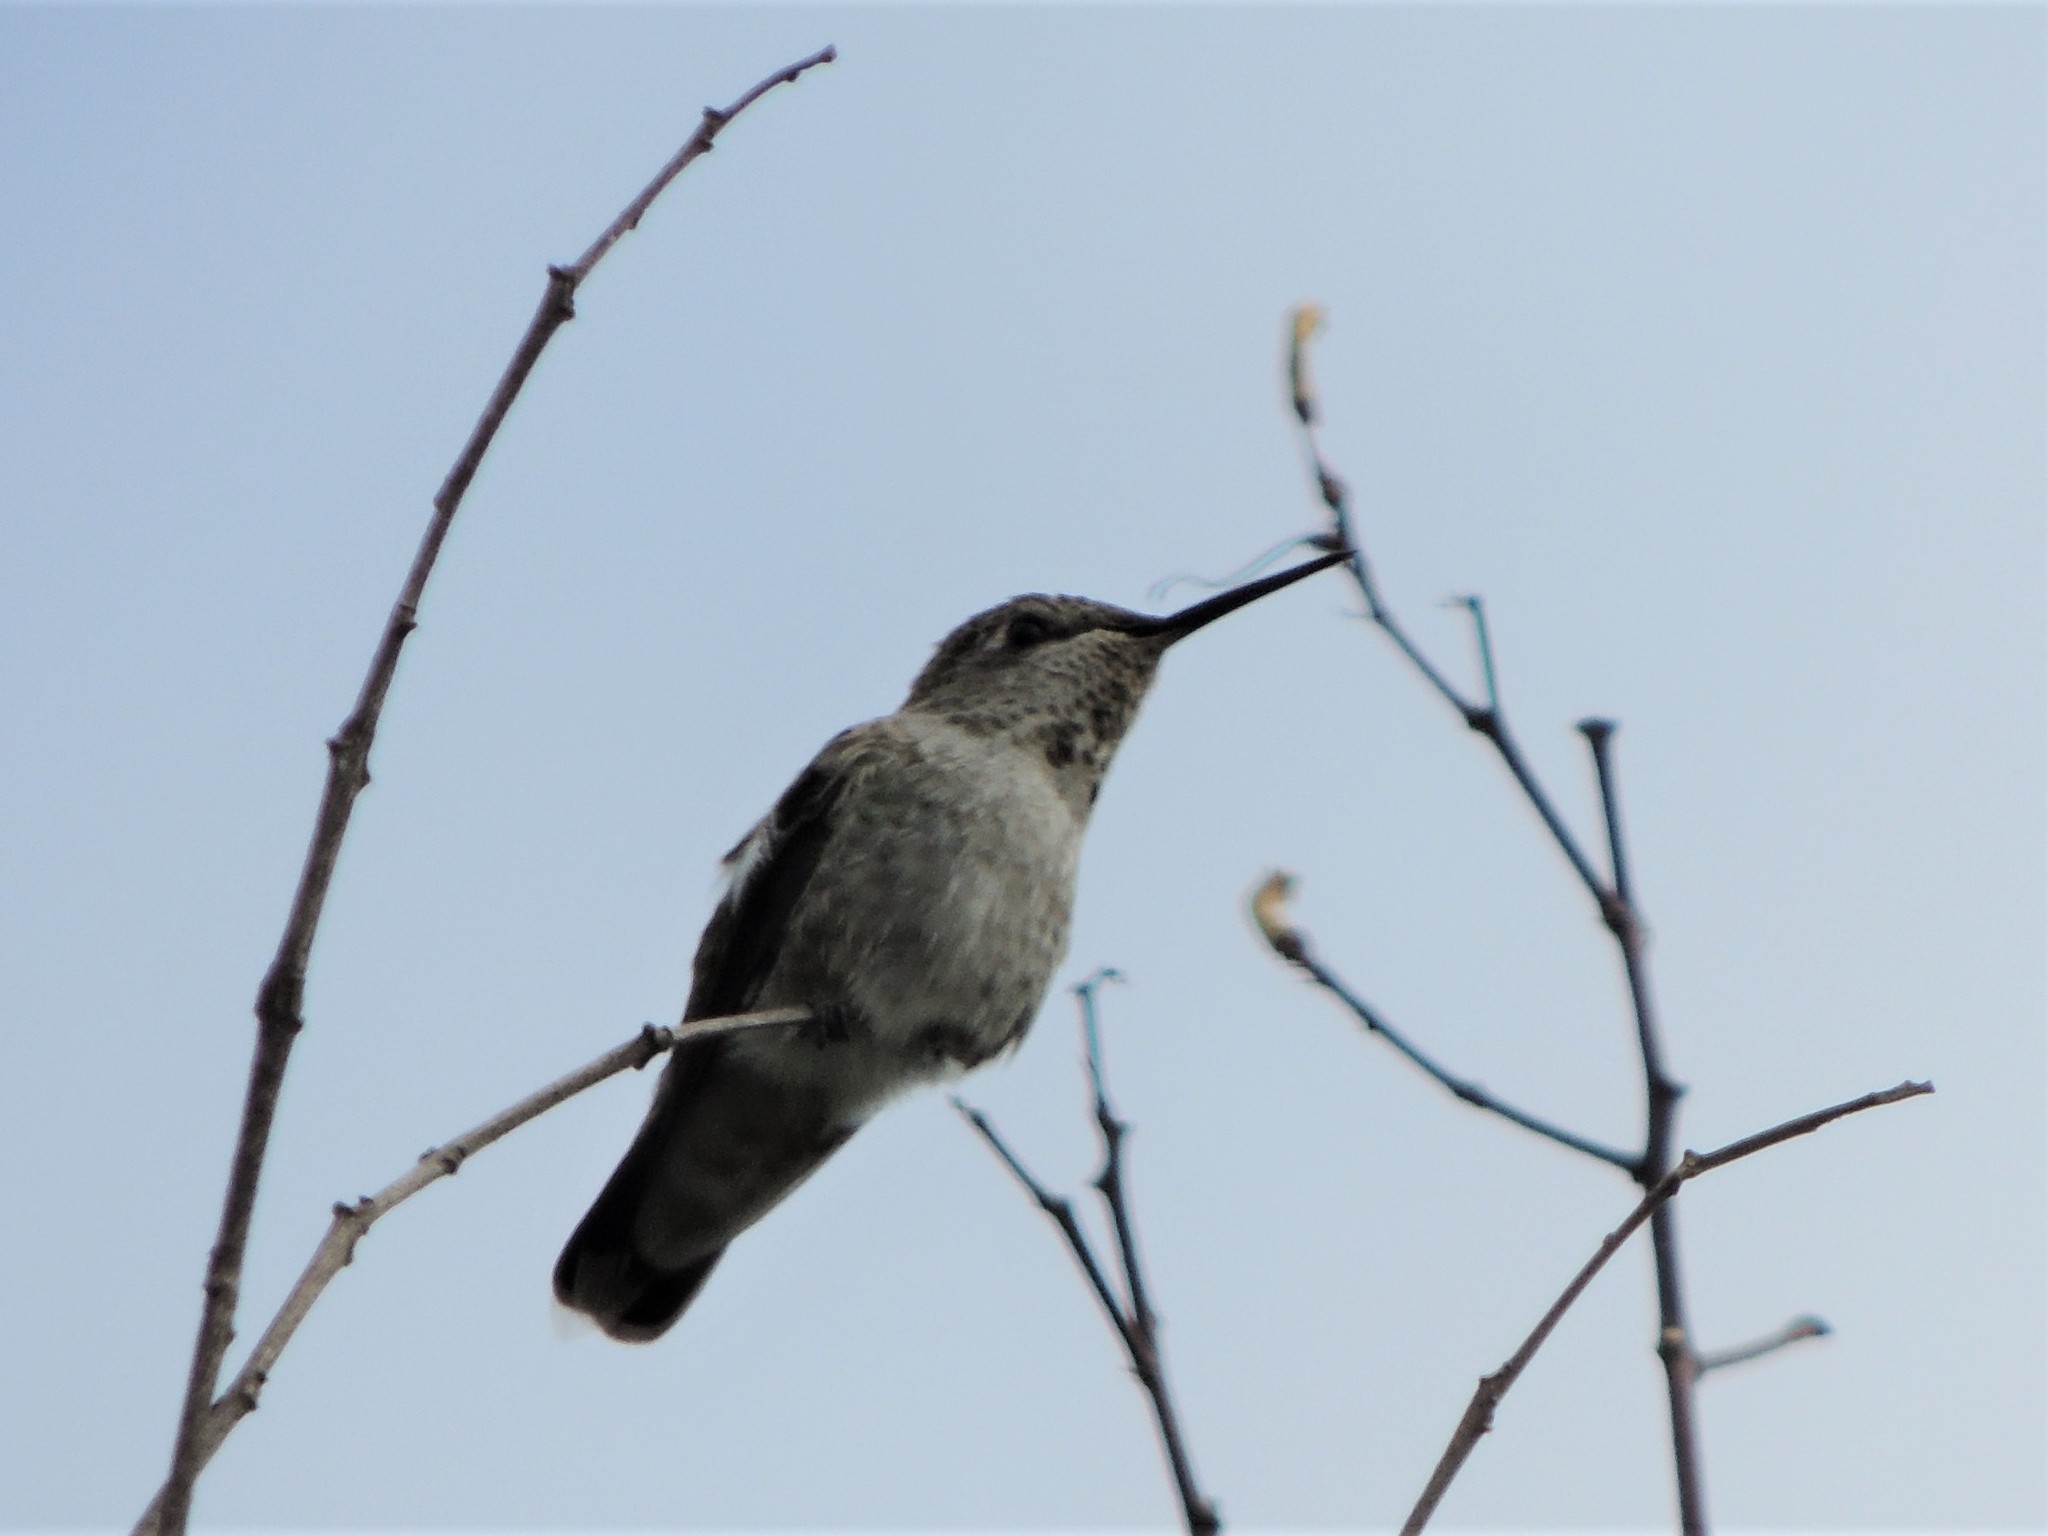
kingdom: Animalia
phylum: Chordata
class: Aves
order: Apodiformes
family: Trochilidae
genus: Calypte
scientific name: Calypte anna
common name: Anna's hummingbird
